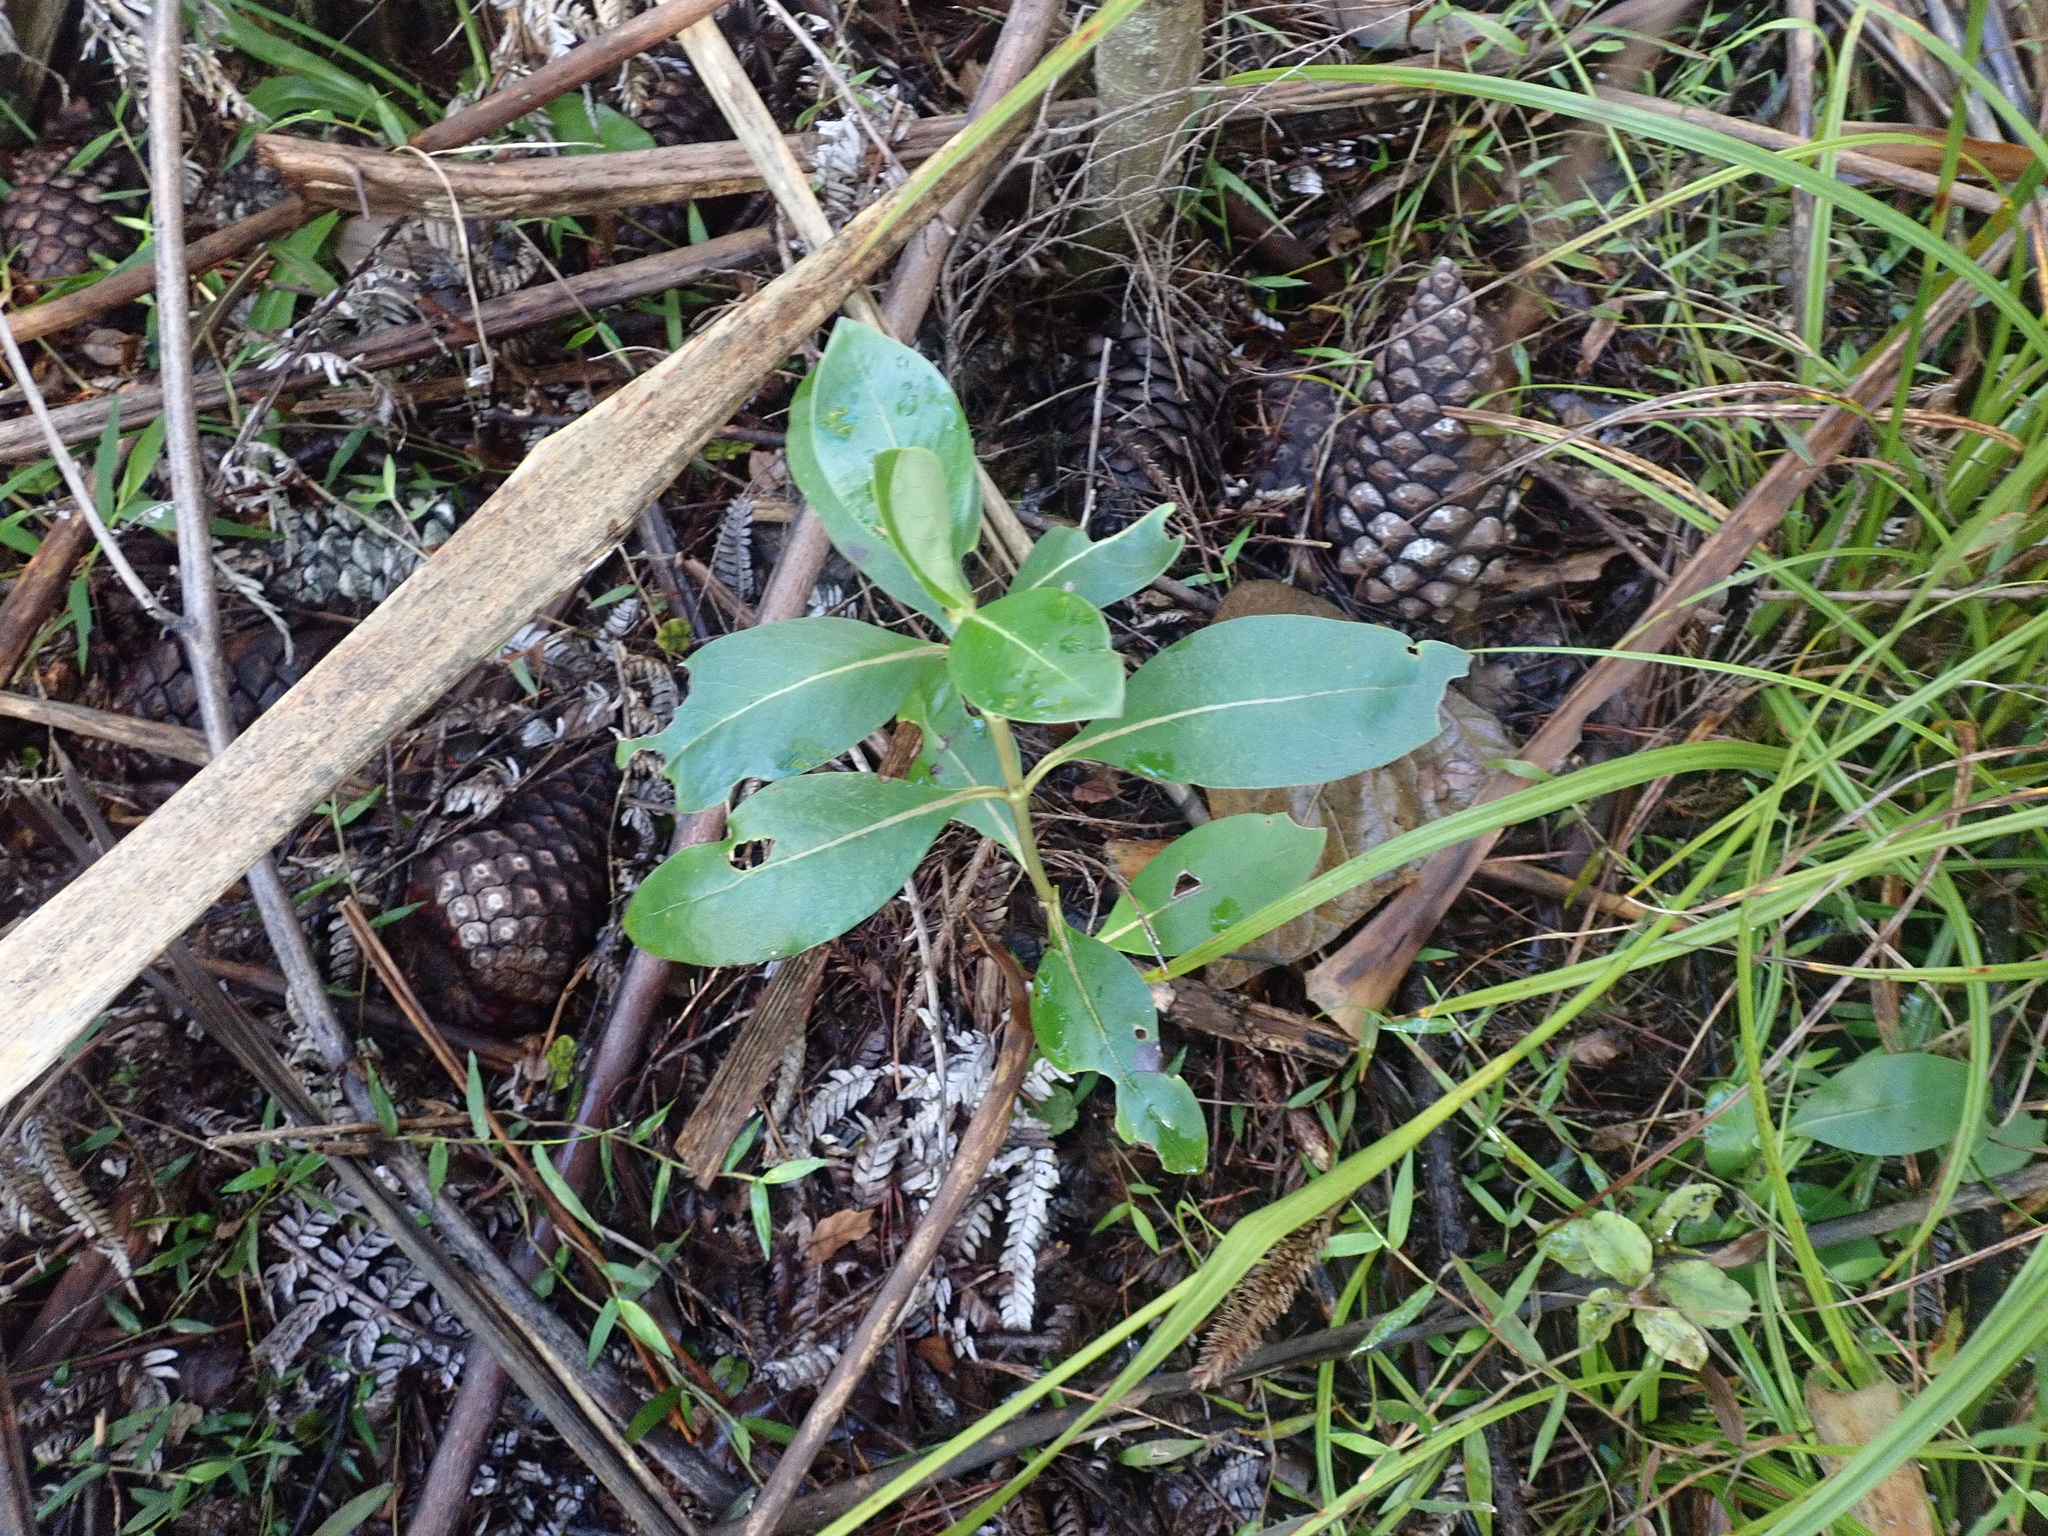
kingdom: Plantae
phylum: Tracheophyta
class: Magnoliopsida
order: Gentianales
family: Rubiaceae
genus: Coprosma
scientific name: Coprosma robusta
